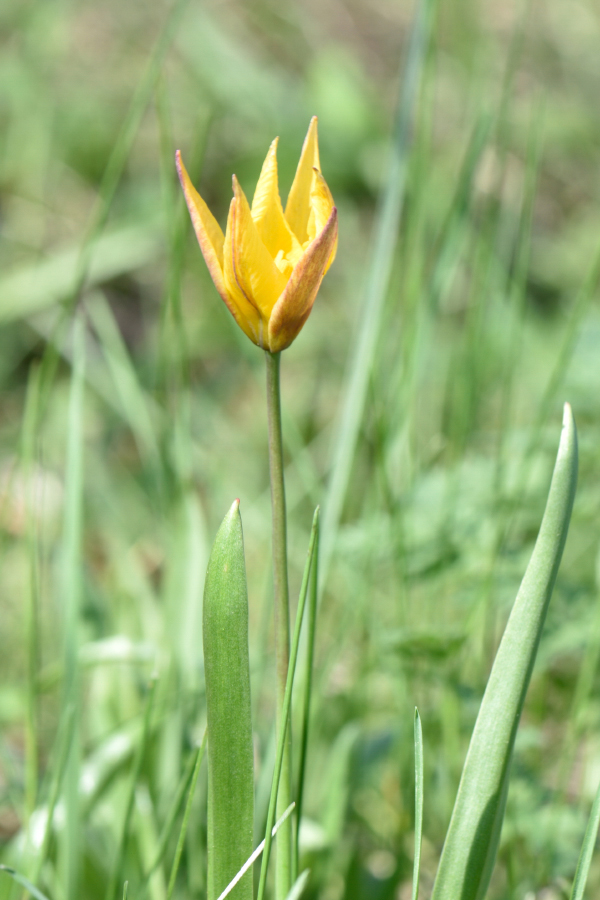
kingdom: Plantae
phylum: Tracheophyta
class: Liliopsida
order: Liliales
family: Liliaceae
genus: Tulipa
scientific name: Tulipa sylvestris
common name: Wild tulip
